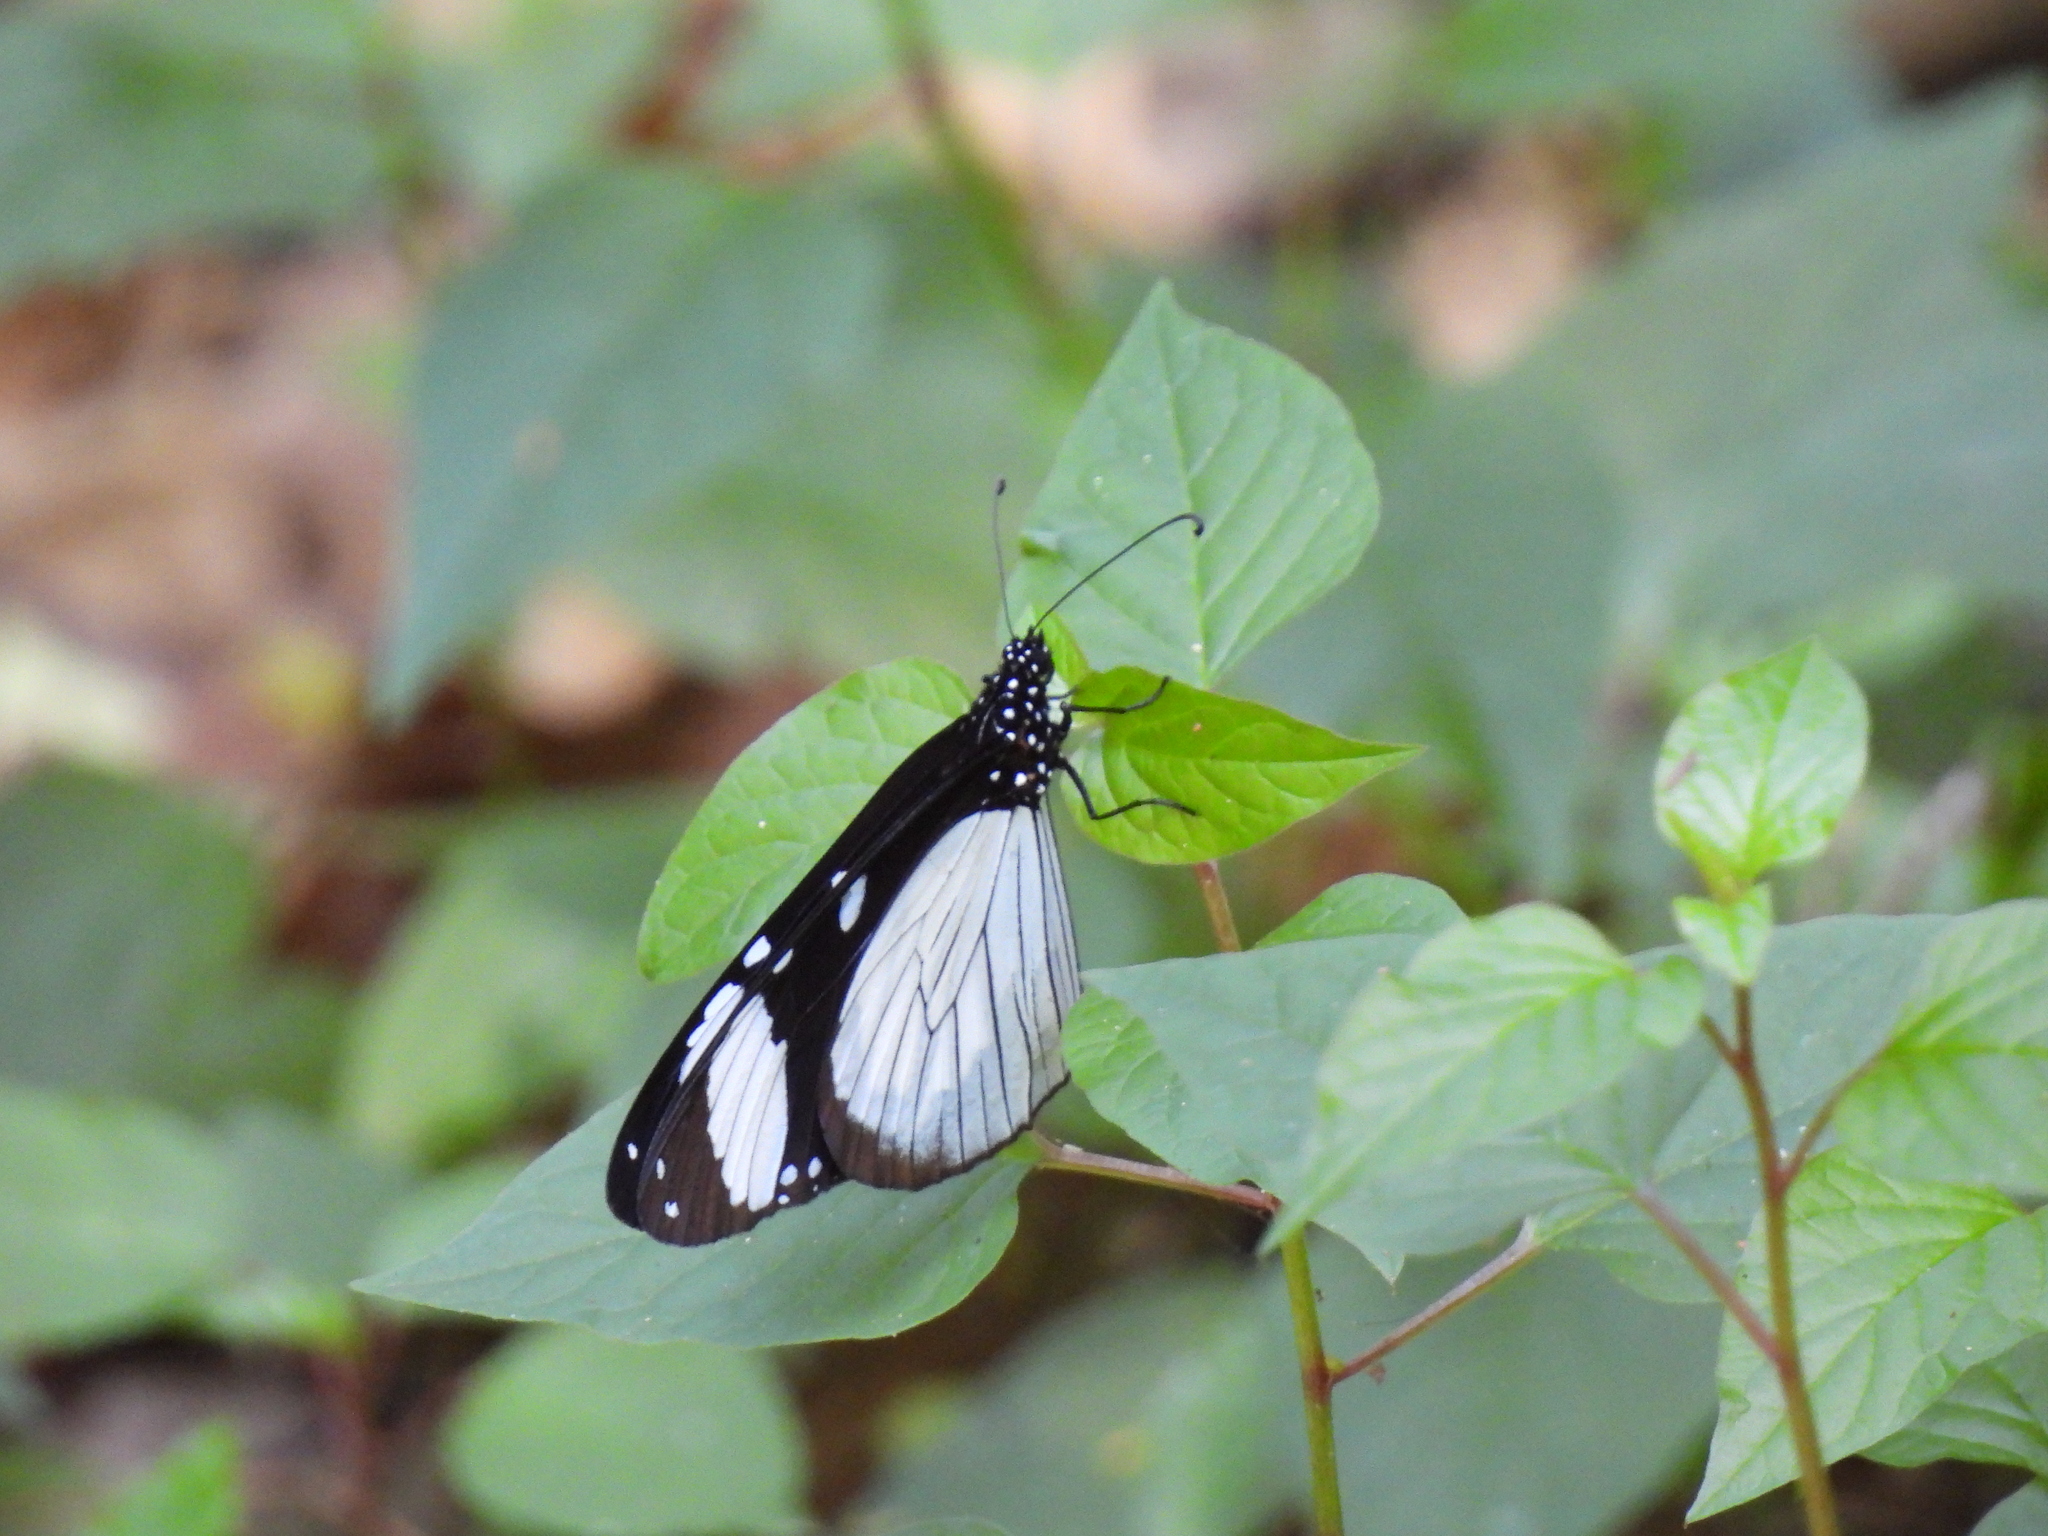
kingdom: Animalia
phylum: Arthropoda
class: Insecta
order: Lepidoptera
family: Nymphalidae
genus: Amauris
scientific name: Amauris niavius
